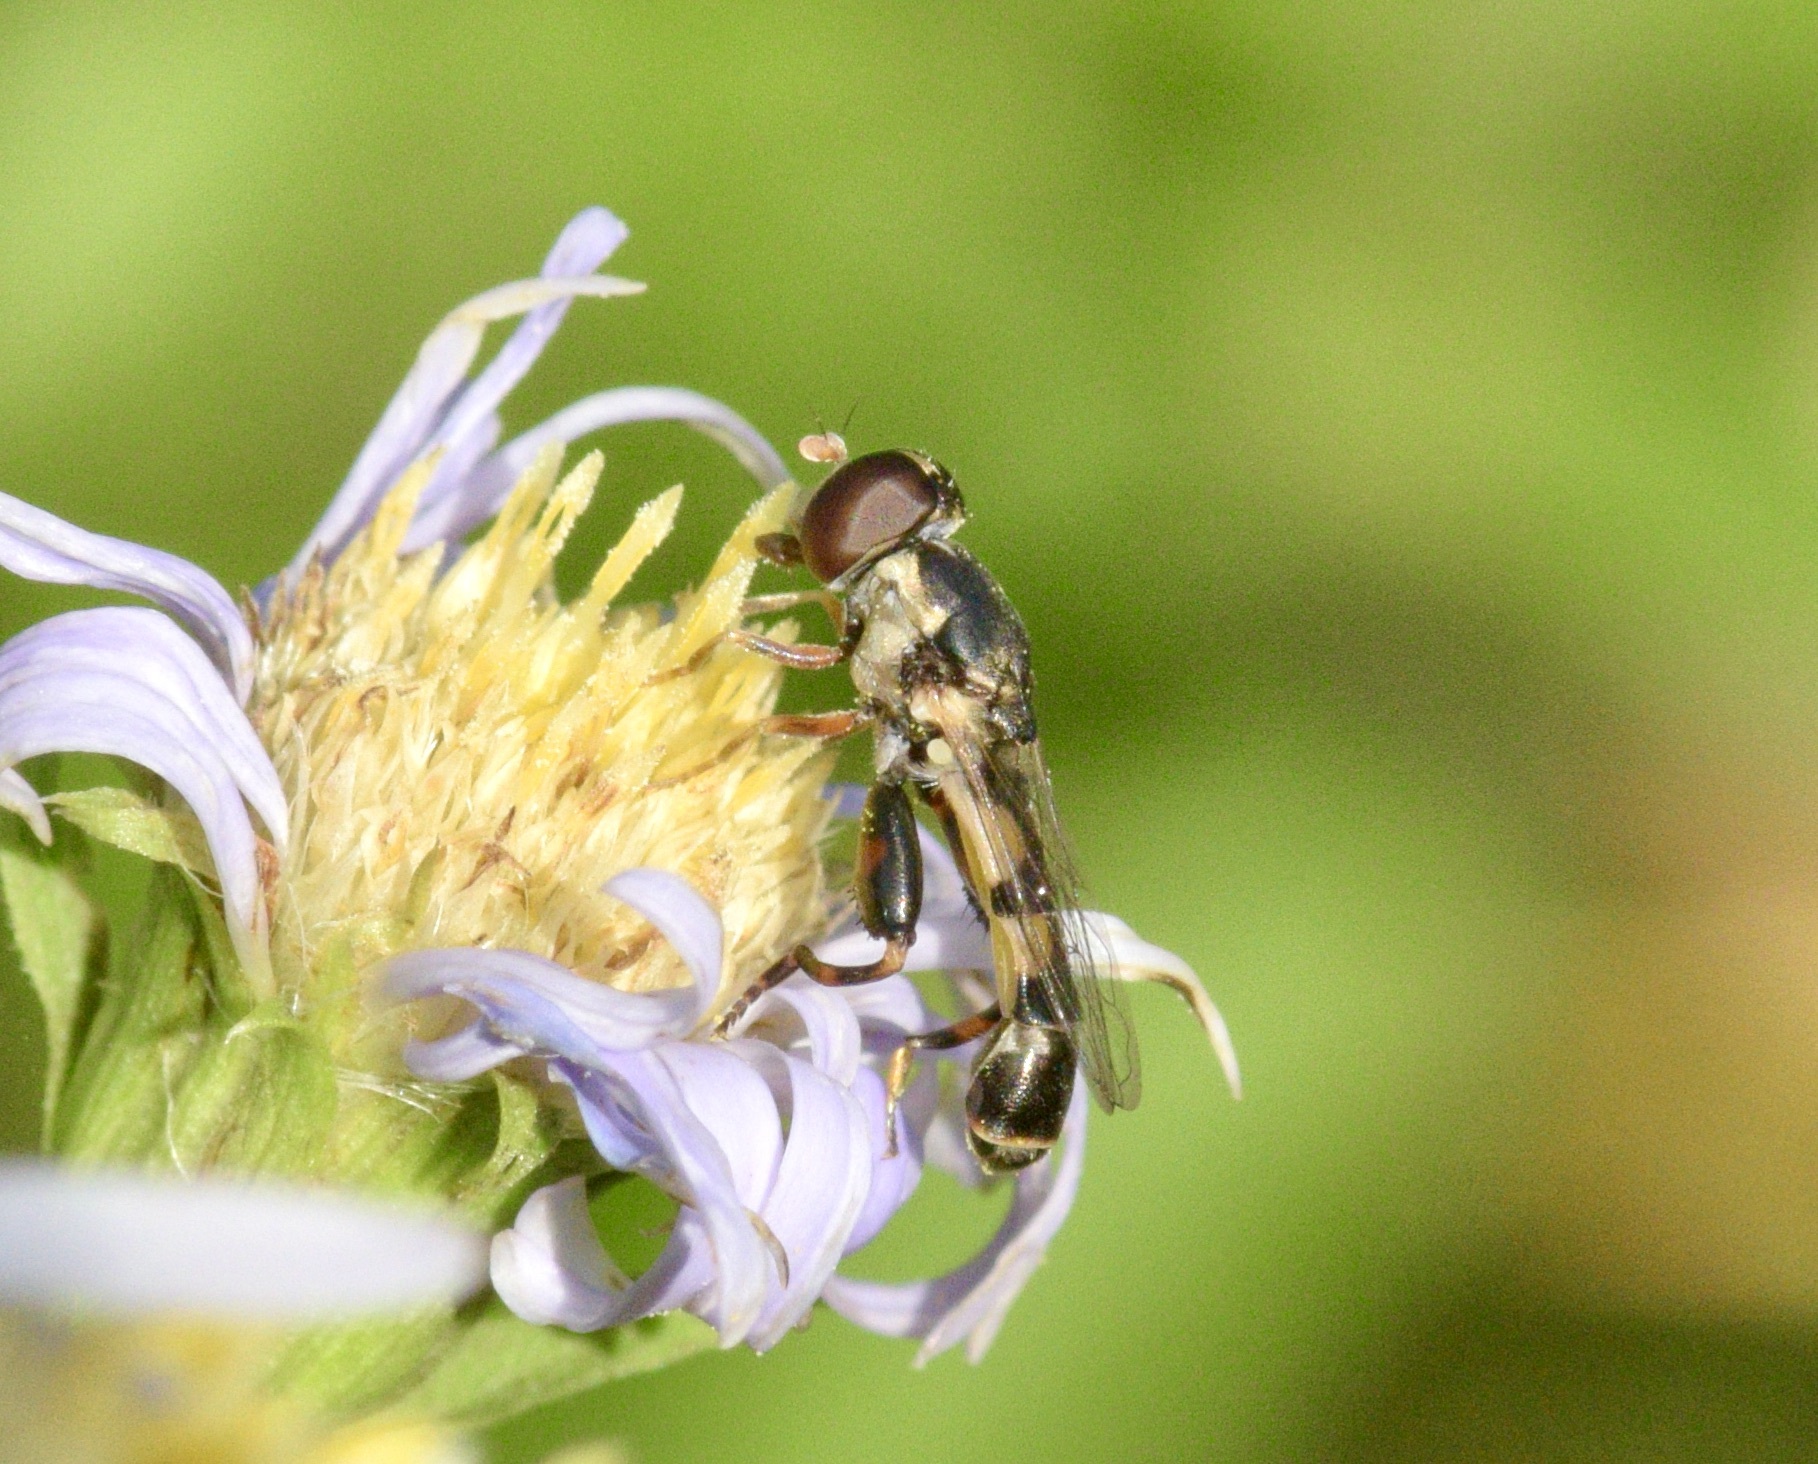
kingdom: Animalia
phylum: Arthropoda
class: Insecta
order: Diptera
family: Syrphidae
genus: Syritta
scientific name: Syritta pipiens
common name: Hover fly
